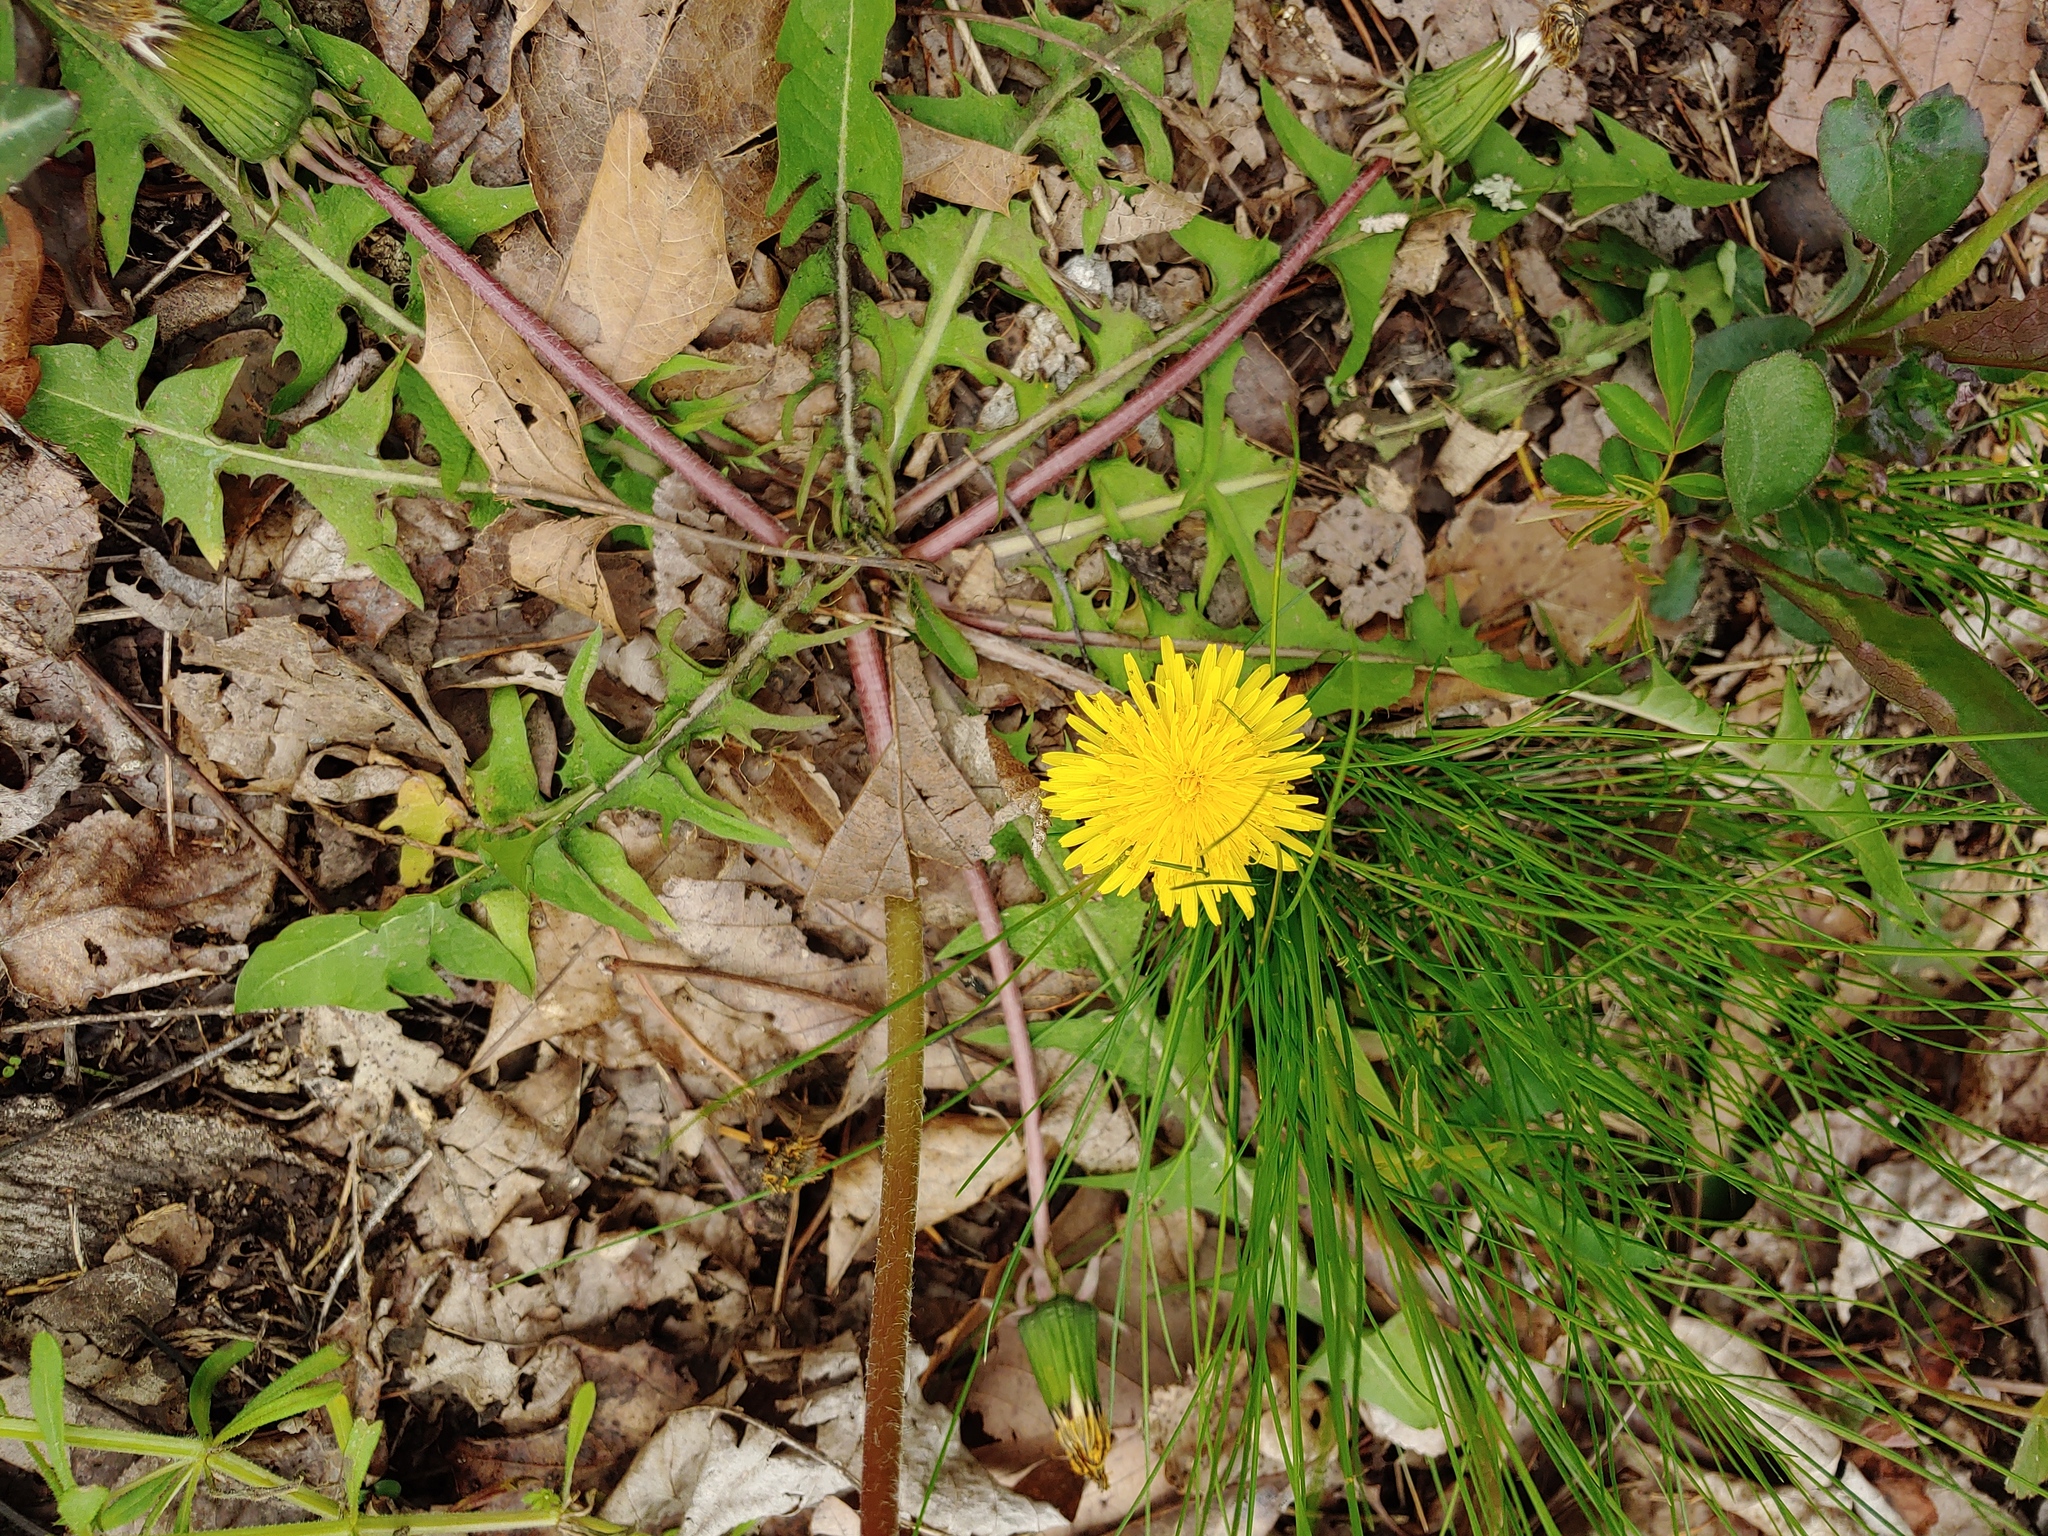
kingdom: Plantae
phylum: Tracheophyta
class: Magnoliopsida
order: Asterales
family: Asteraceae
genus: Taraxacum
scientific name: Taraxacum officinale
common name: Common dandelion
